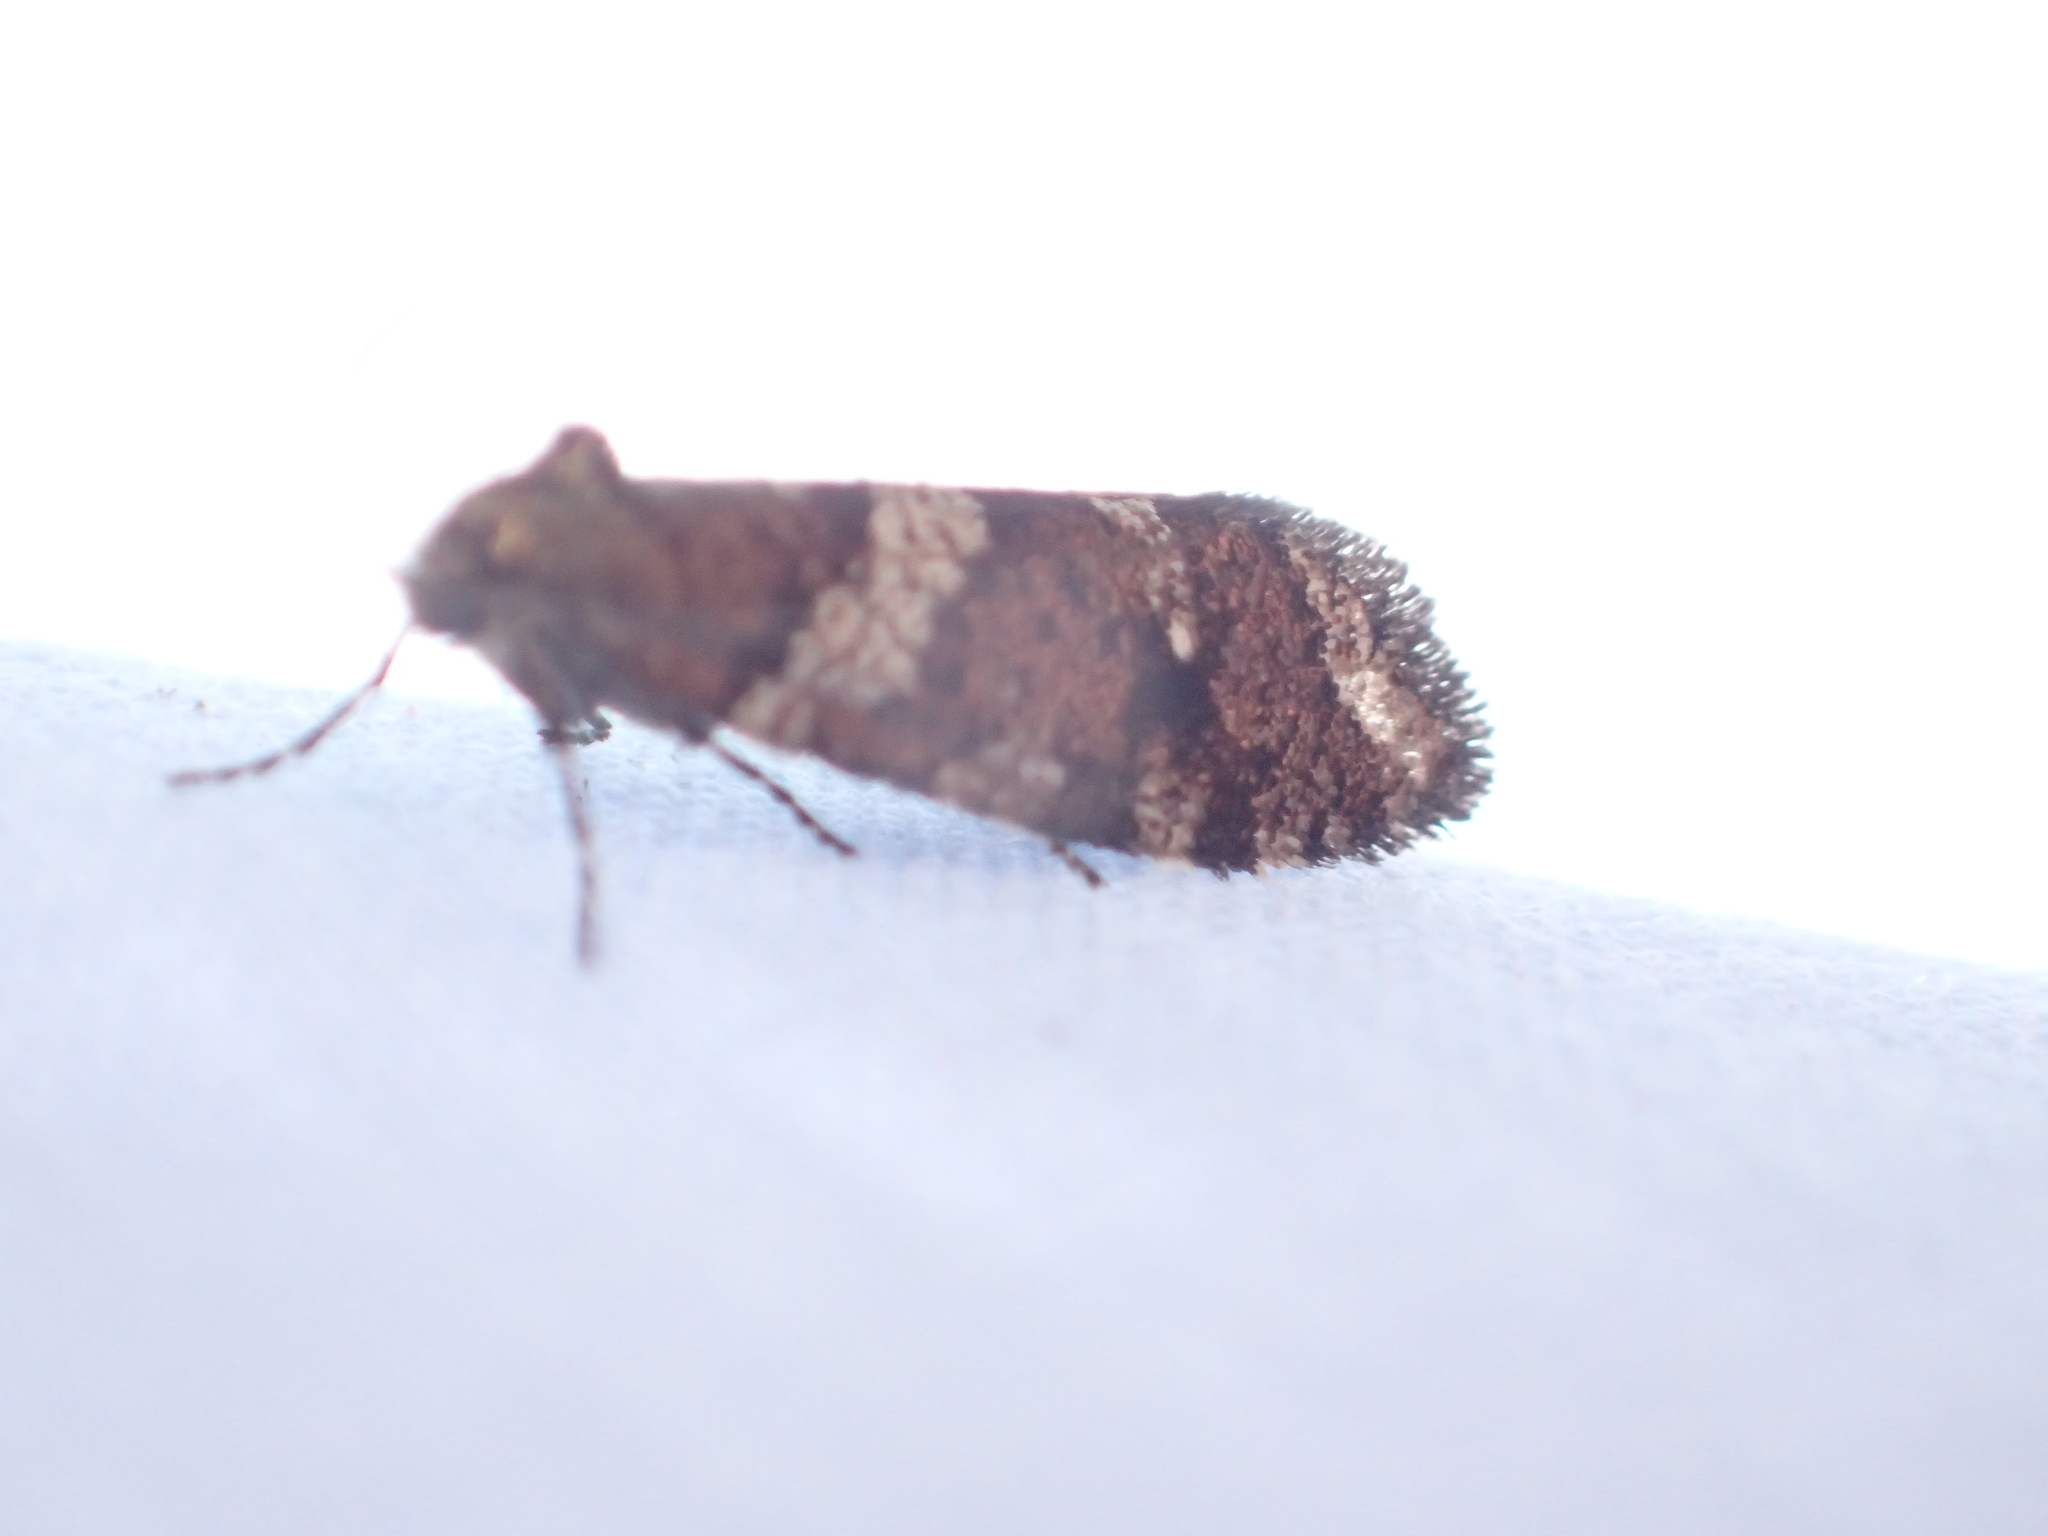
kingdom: Animalia
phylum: Arthropoda
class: Insecta
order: Lepidoptera
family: Psychidae
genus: Lepidoscia
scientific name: Lepidoscia heliochares
